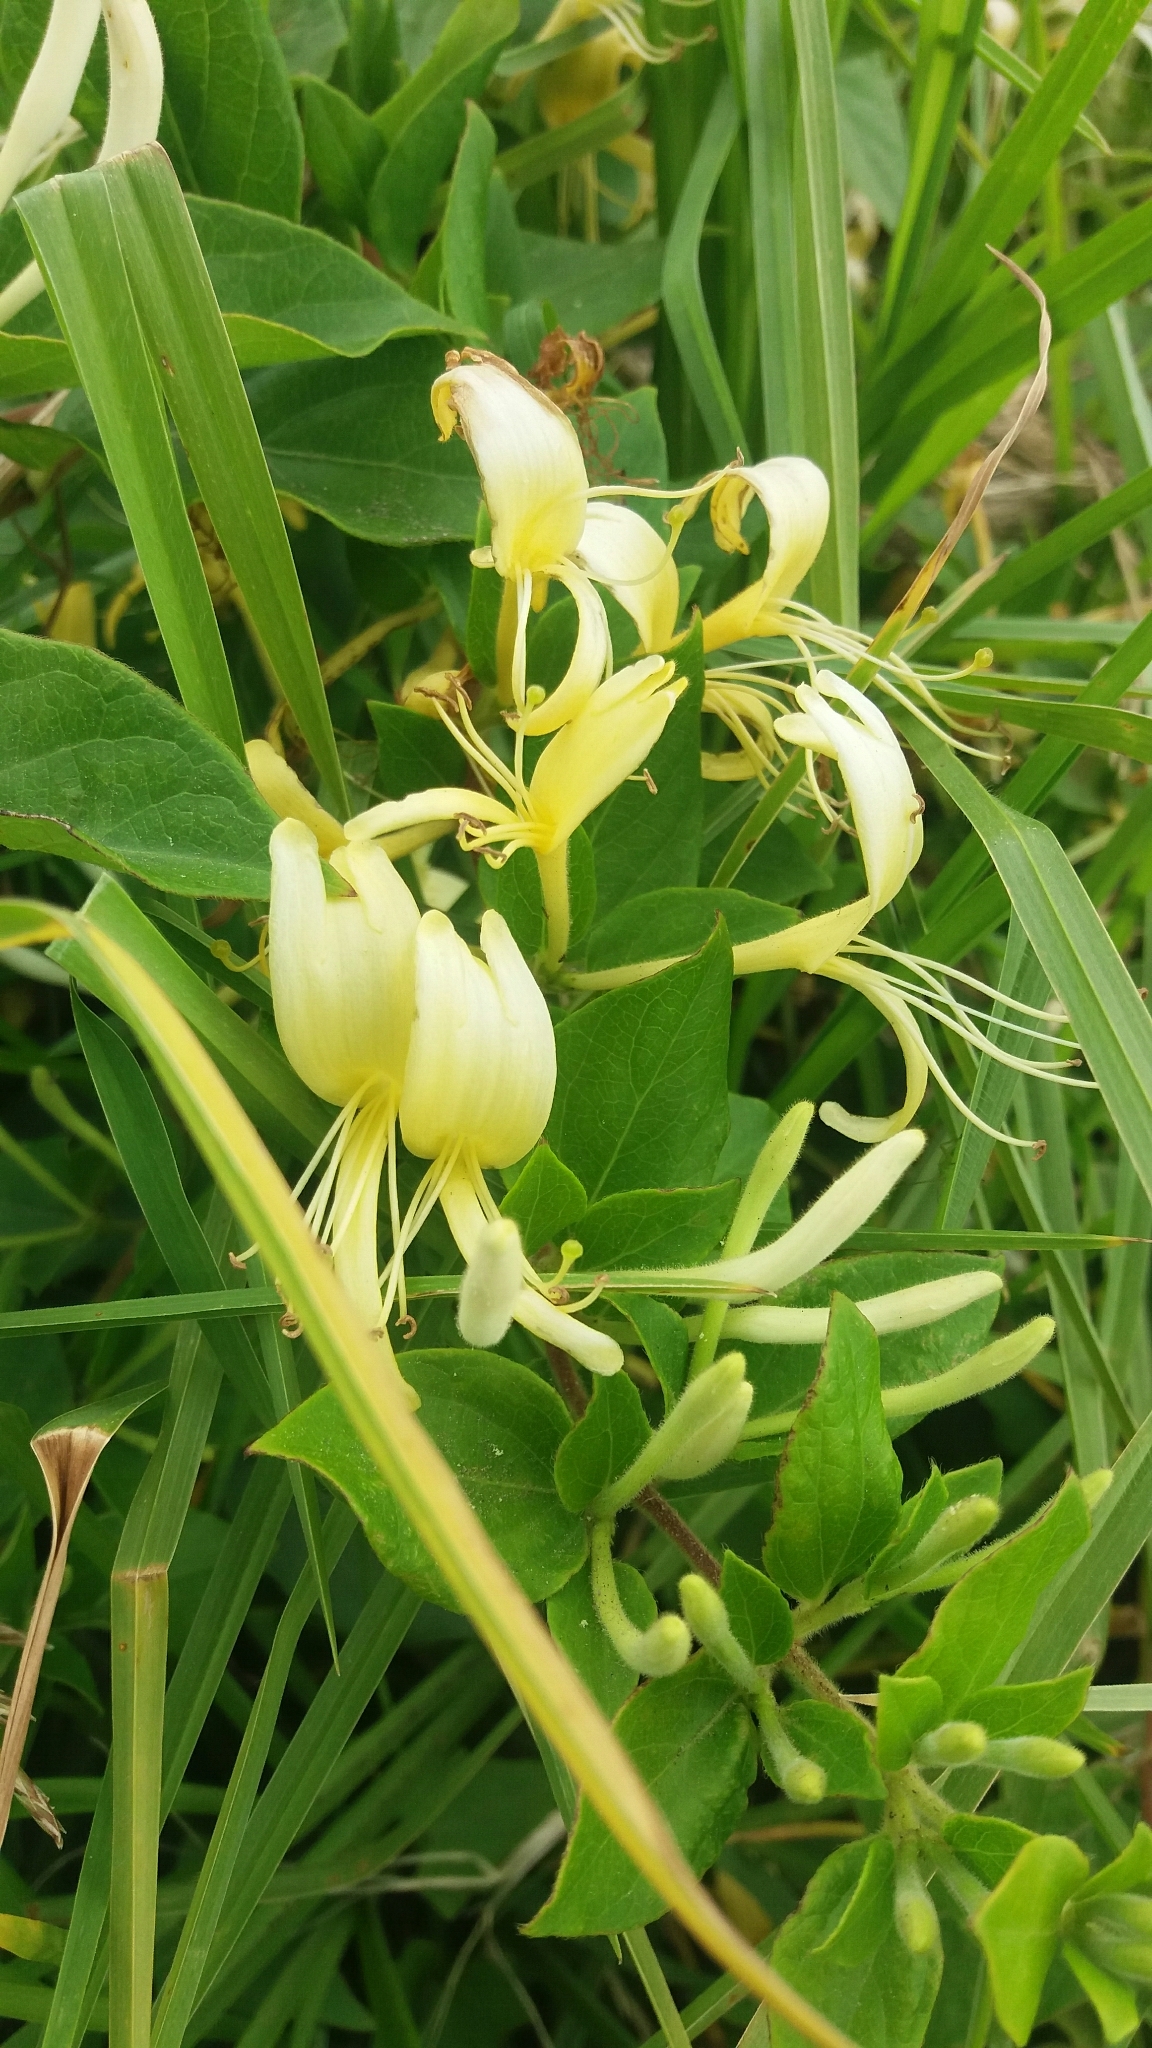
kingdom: Plantae
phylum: Tracheophyta
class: Magnoliopsida
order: Dipsacales
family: Caprifoliaceae
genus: Lonicera
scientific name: Lonicera japonica
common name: Japanese honeysuckle
